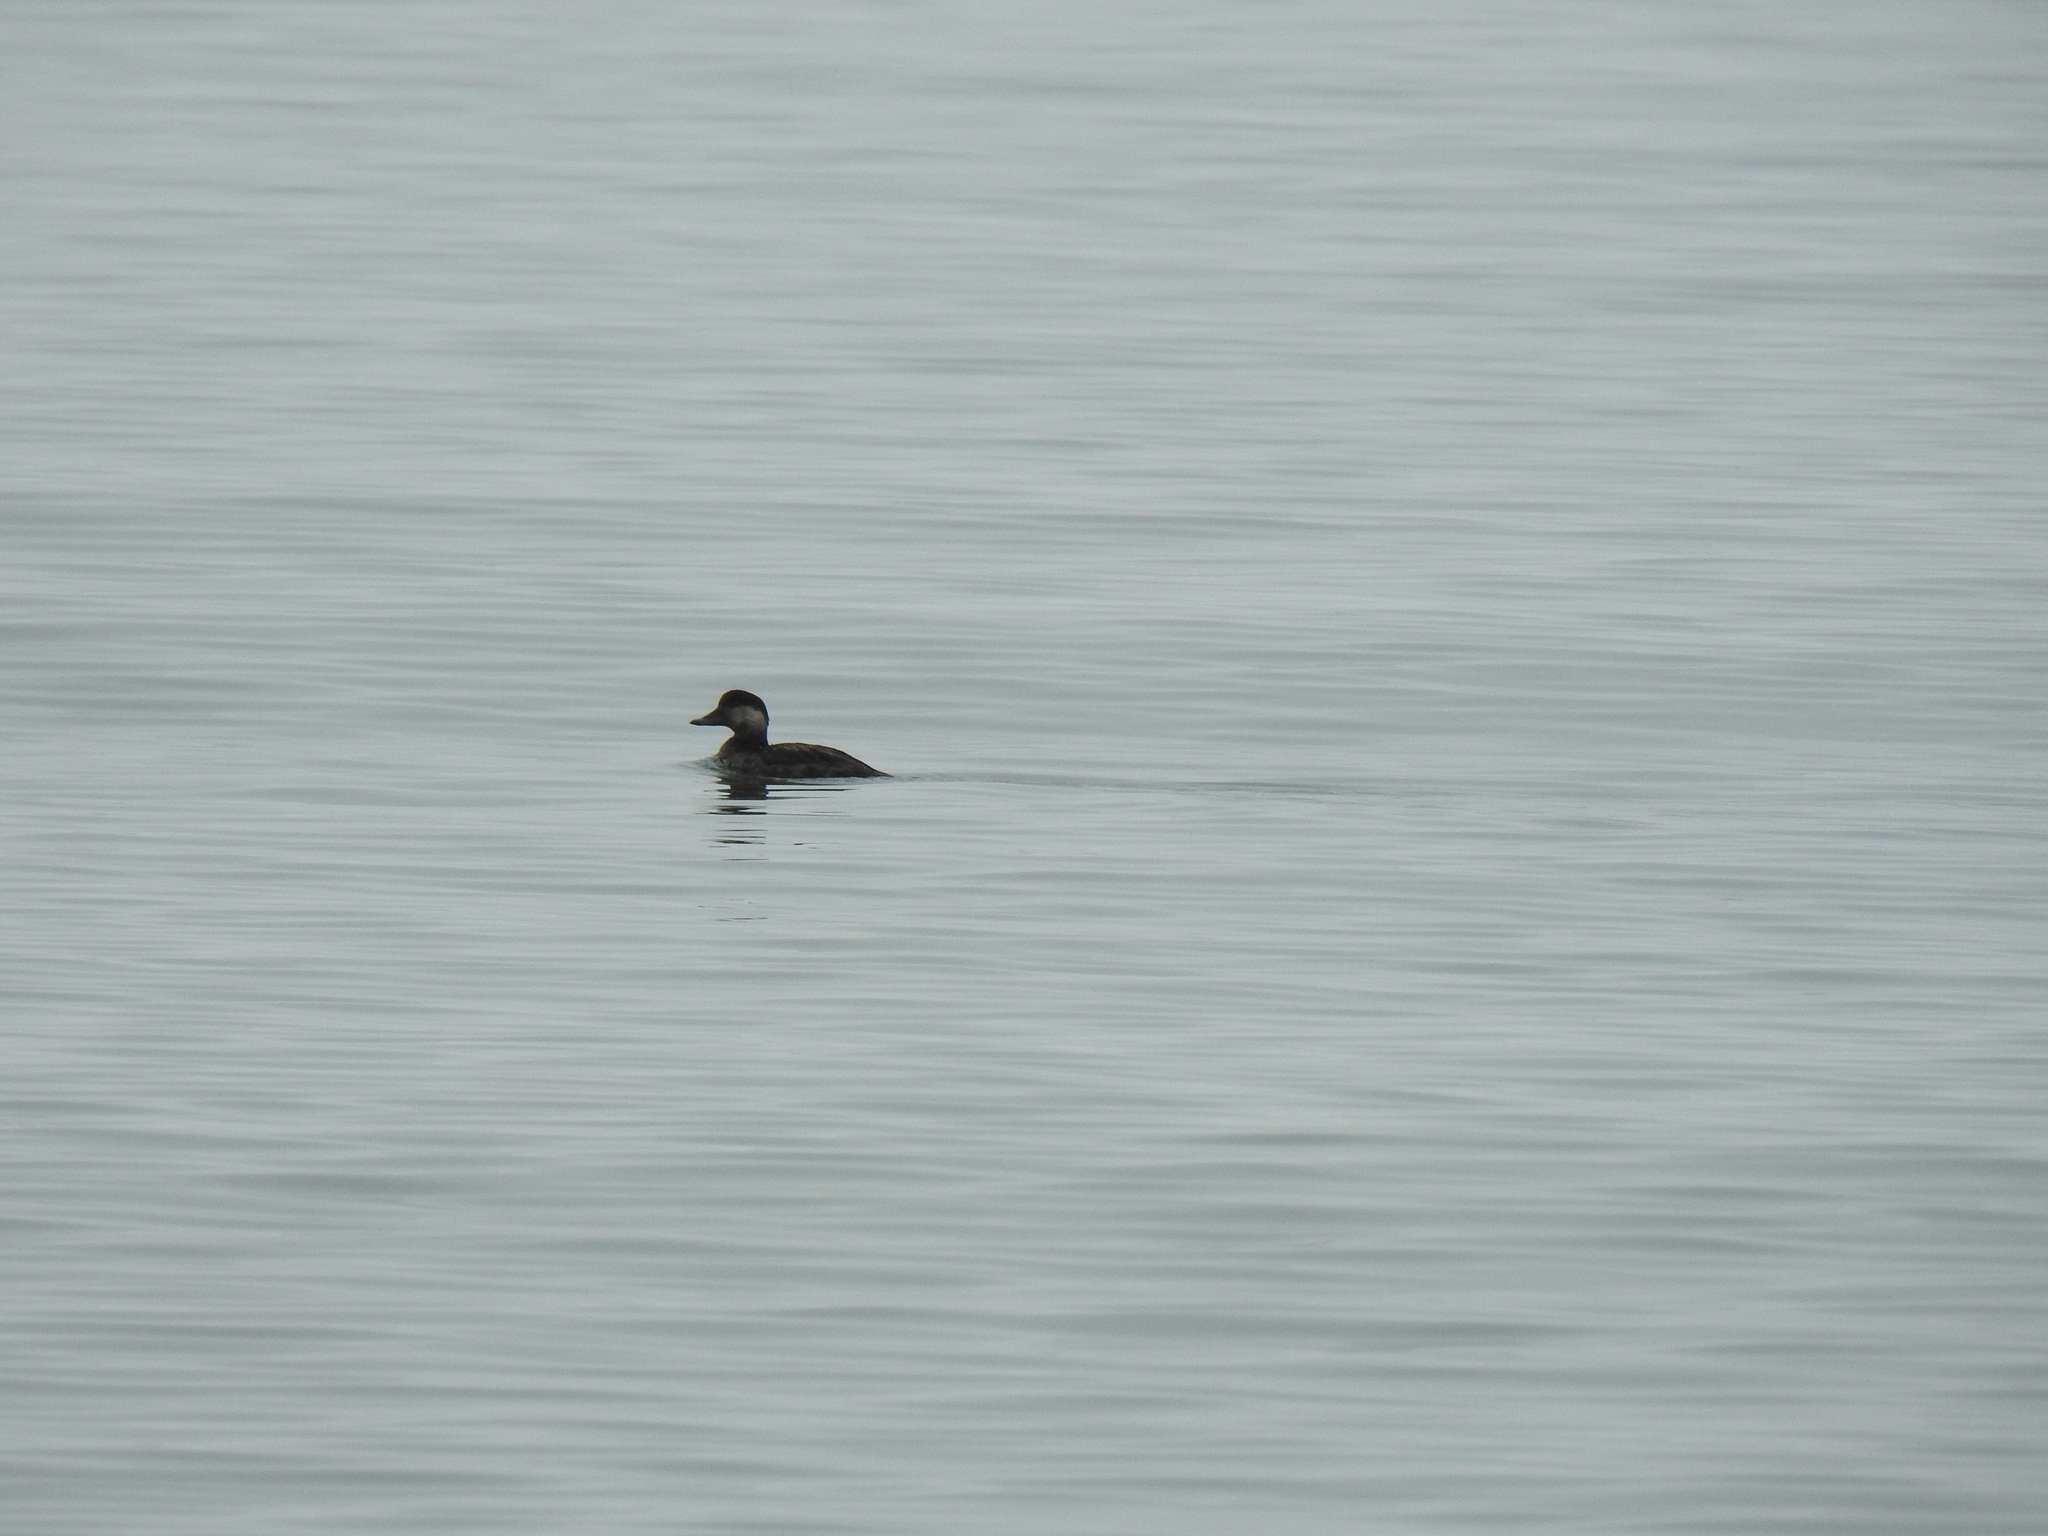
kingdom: Animalia
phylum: Chordata
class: Aves
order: Anseriformes
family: Anatidae
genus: Melanitta
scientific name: Melanitta americana
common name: Black scoter
